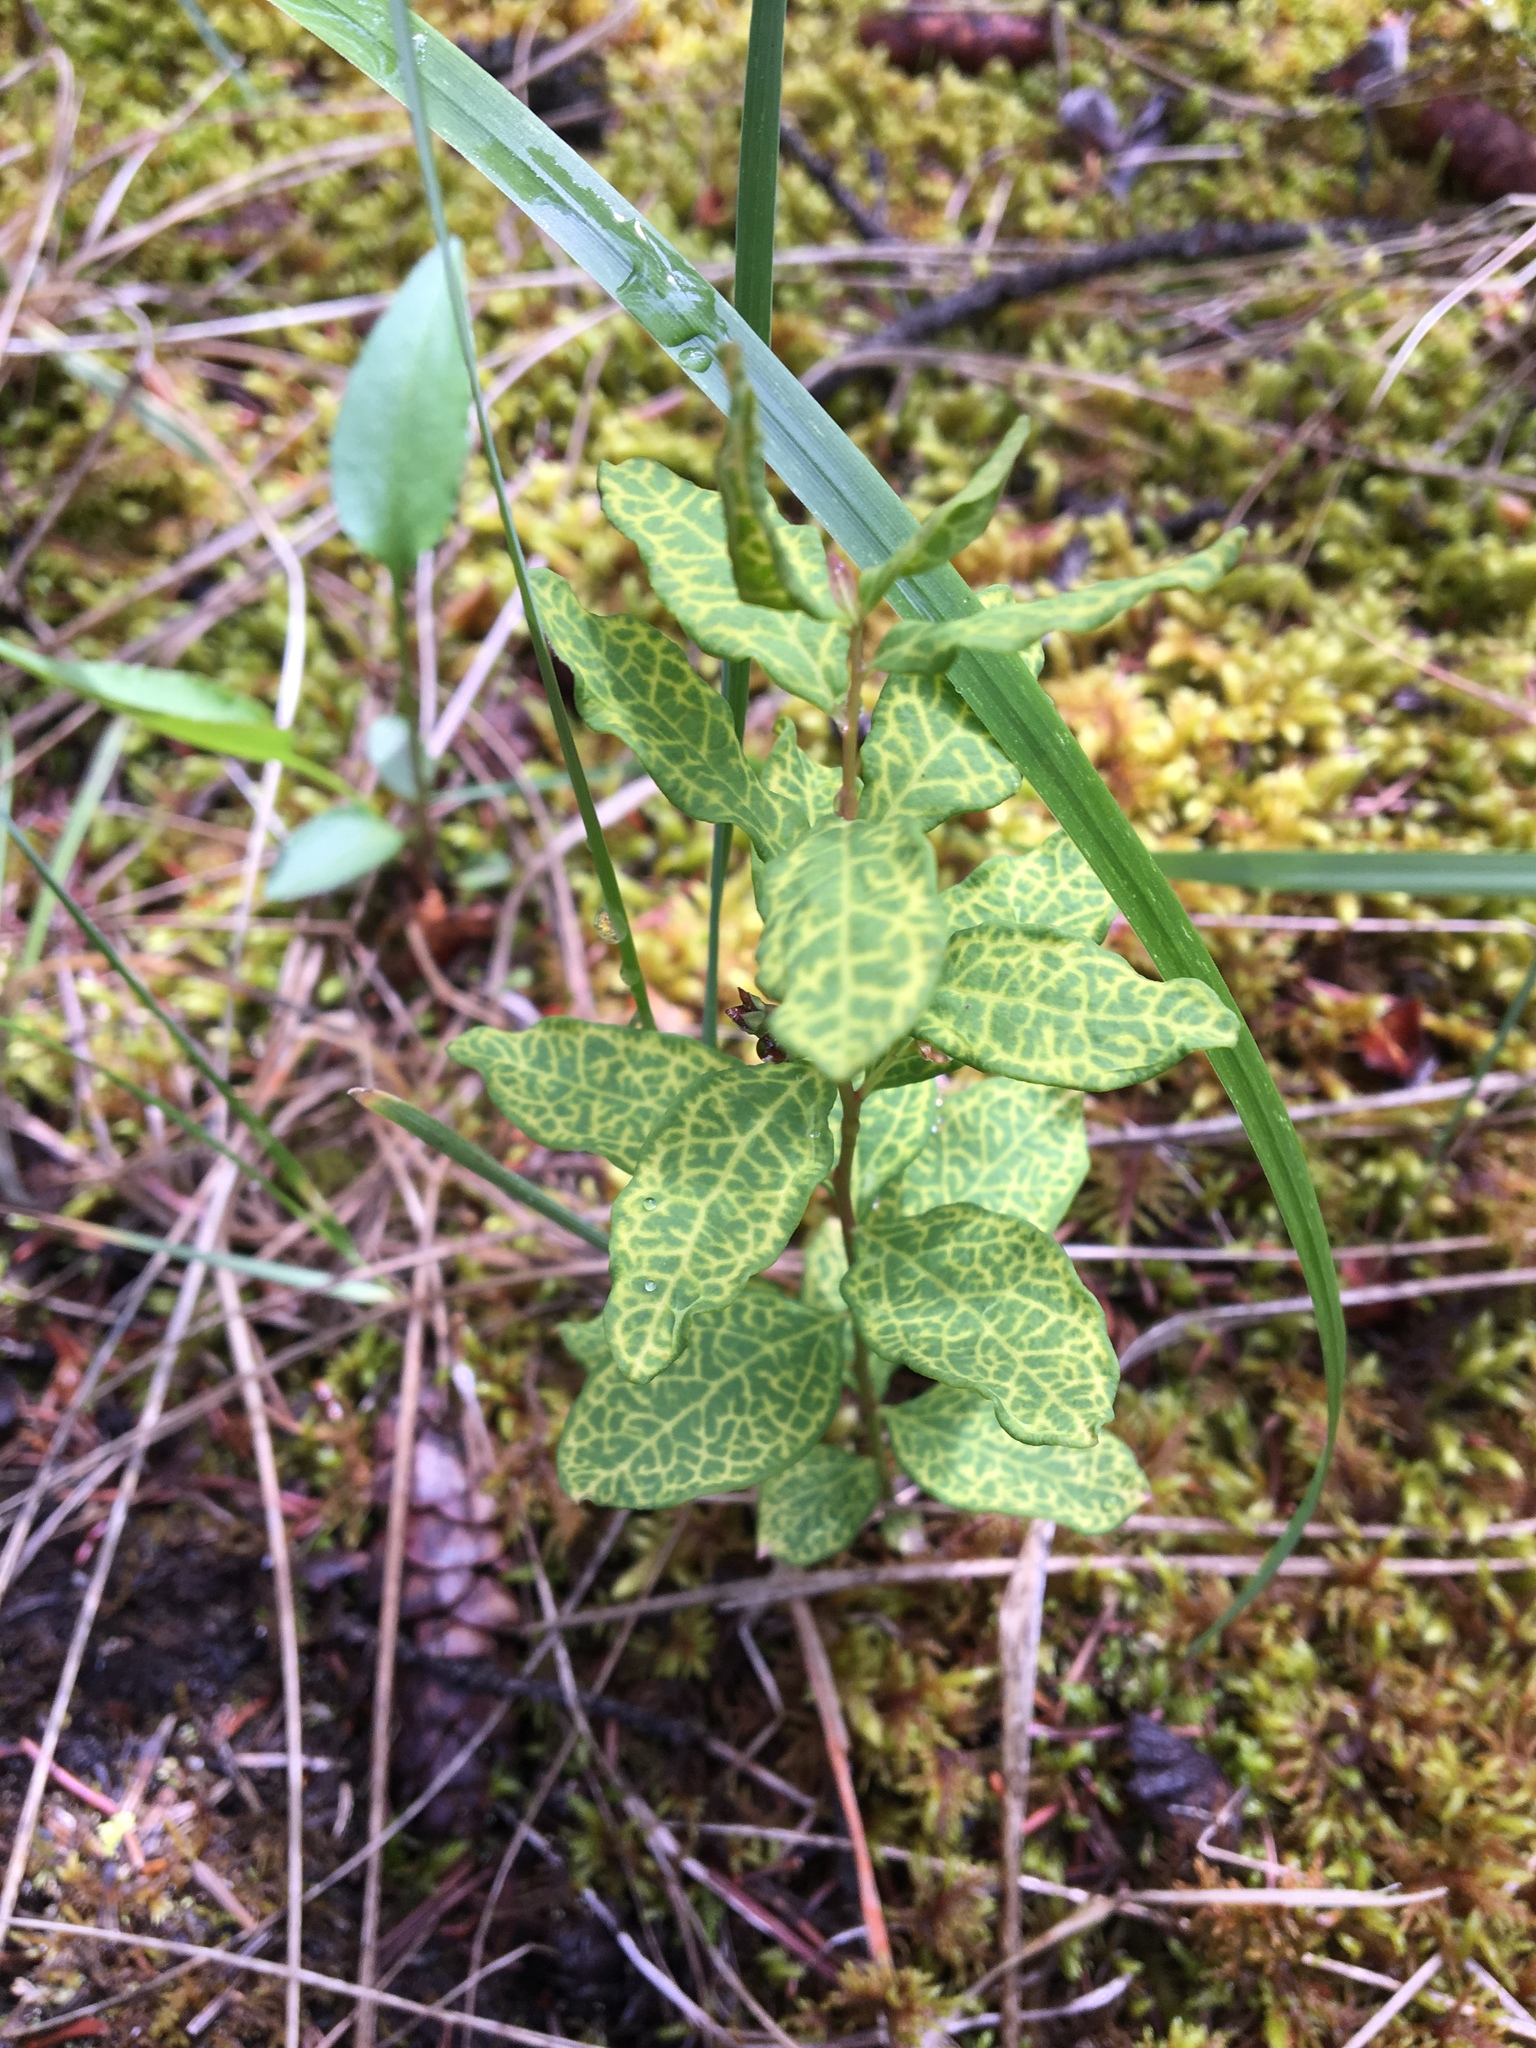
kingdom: Plantae
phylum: Tracheophyta
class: Magnoliopsida
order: Santalales
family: Comandraceae
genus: Geocaulon
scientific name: Geocaulon lividum
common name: Earthberry
